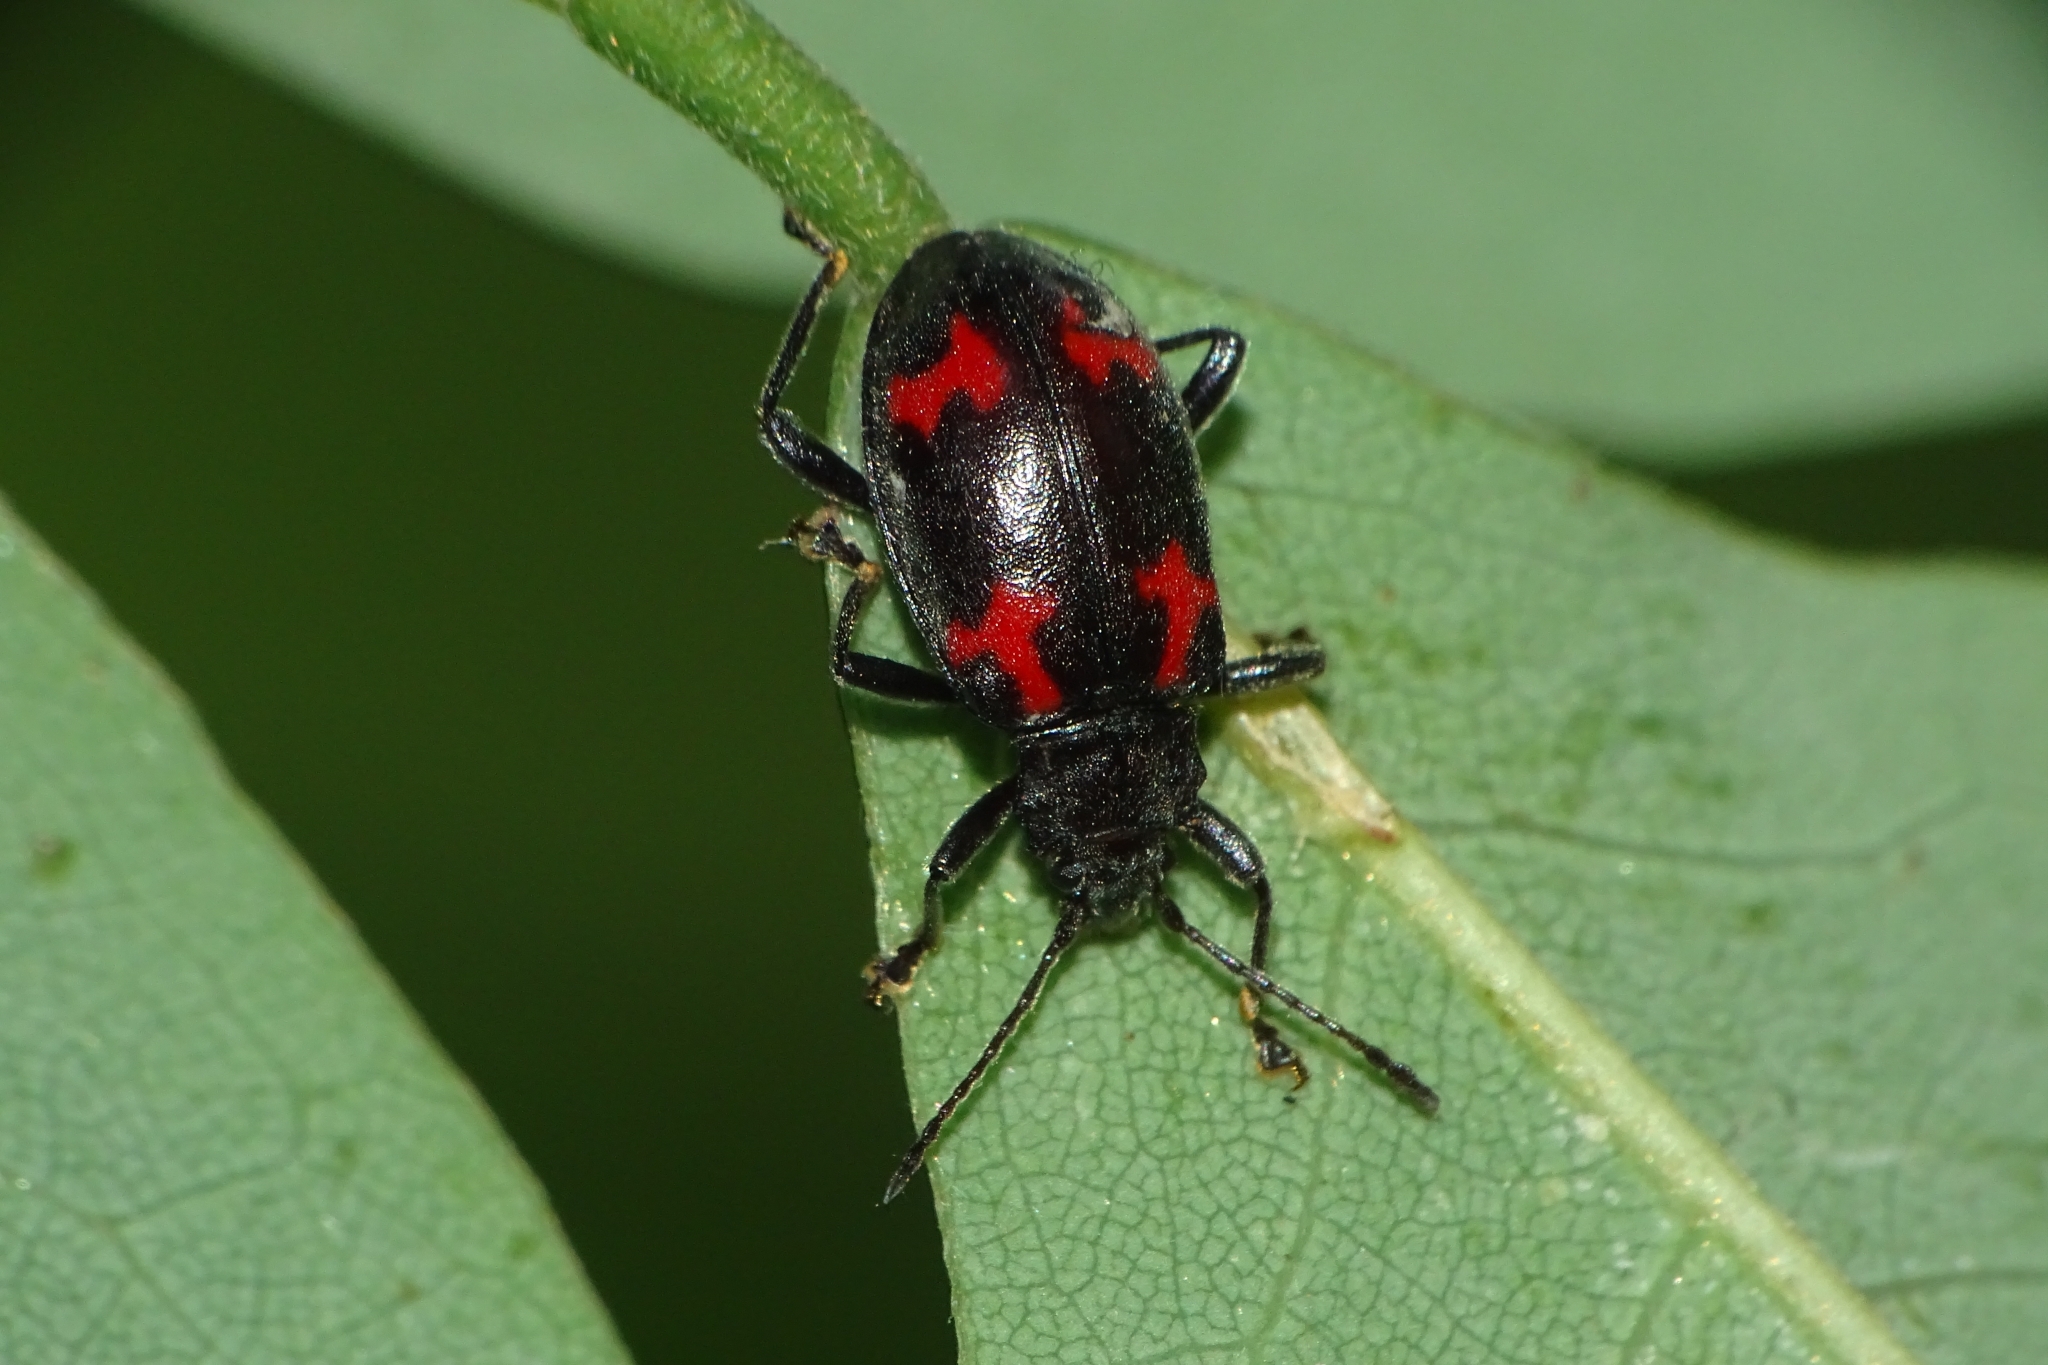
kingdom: Animalia
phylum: Arthropoda
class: Insecta
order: Coleoptera
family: Endomychidae
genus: Parindalmus
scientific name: Parindalmus
